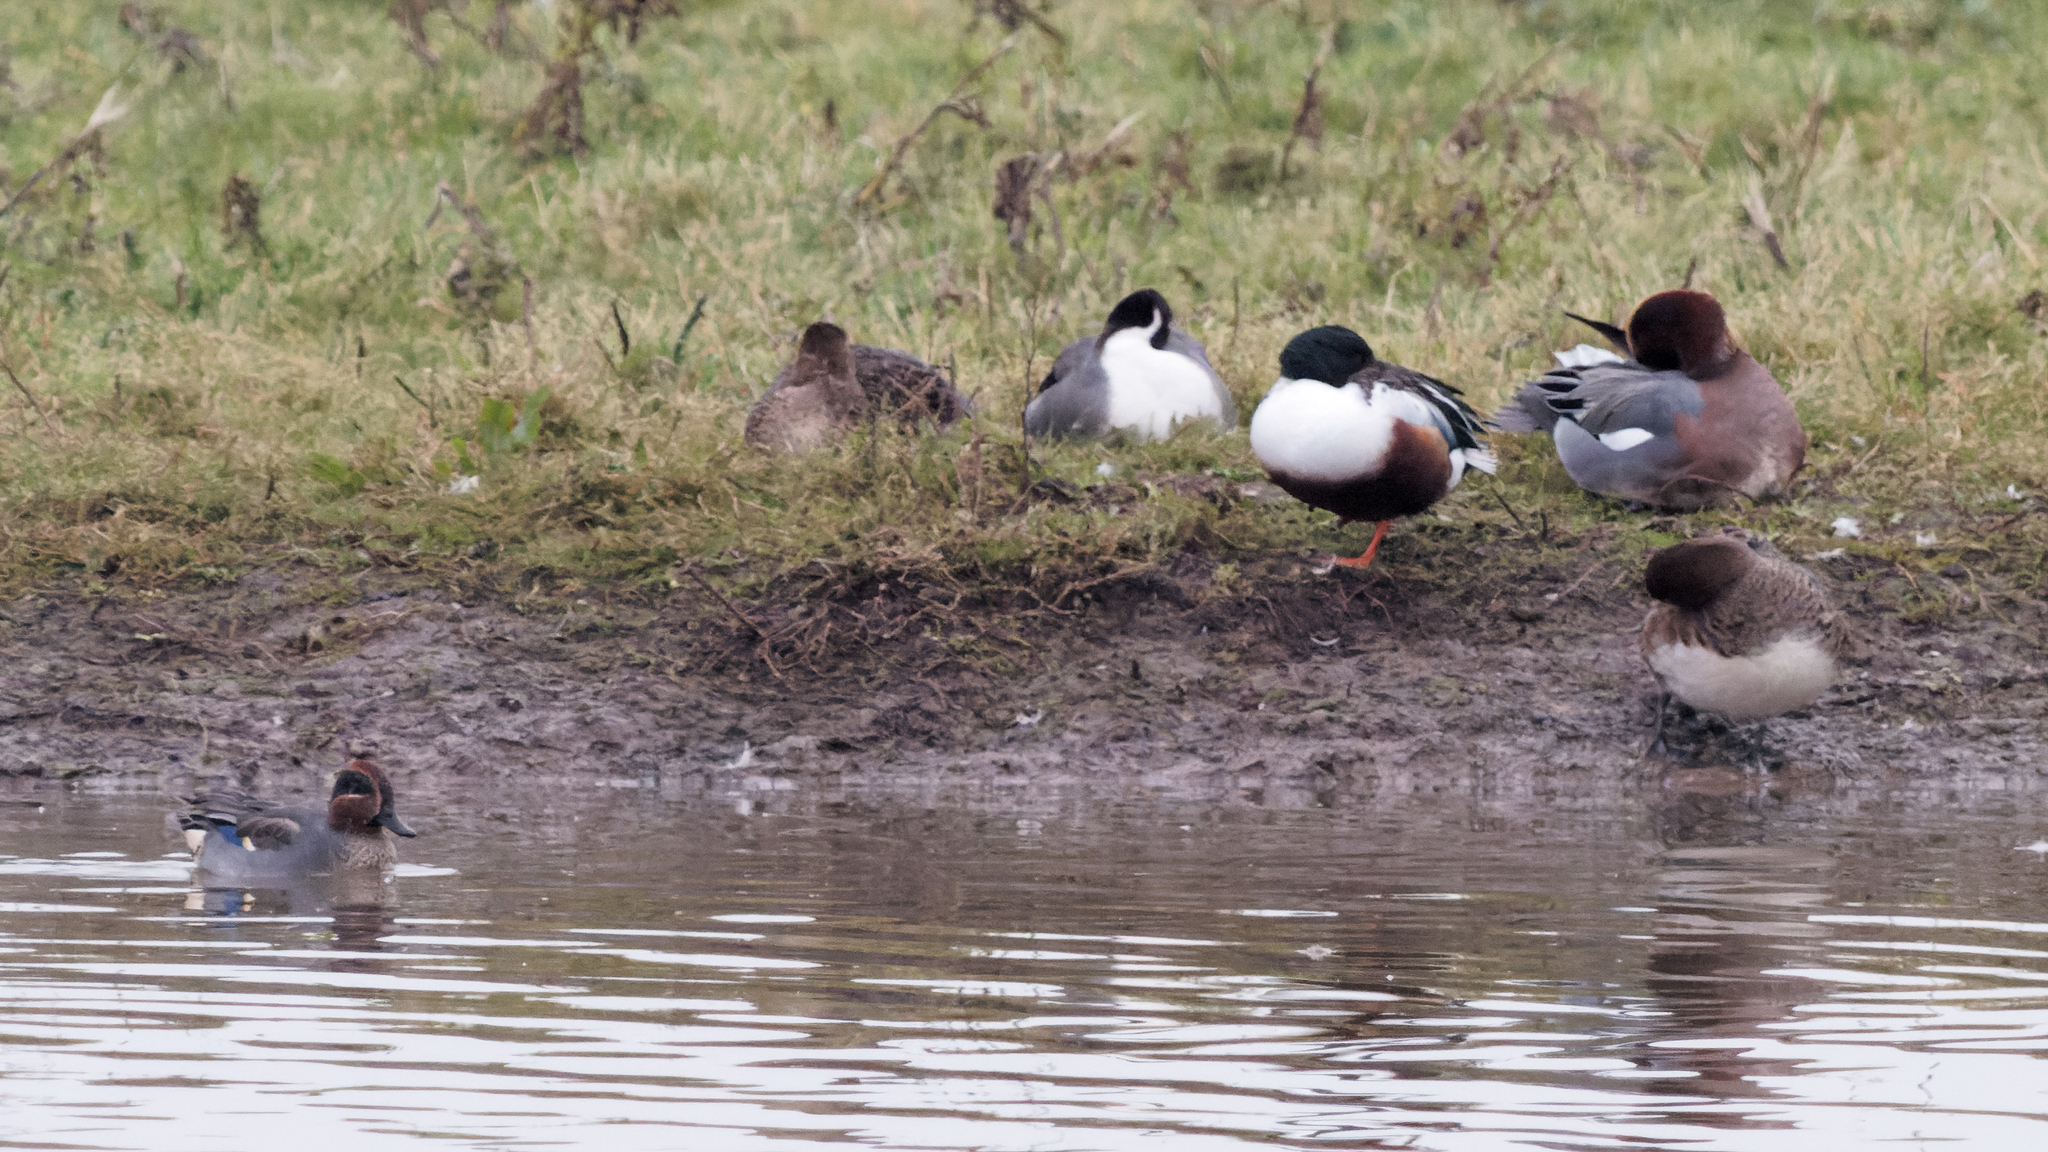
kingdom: Animalia
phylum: Chordata
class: Aves
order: Anseriformes
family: Anatidae
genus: Spatula
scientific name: Spatula clypeata
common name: Northern shoveler
